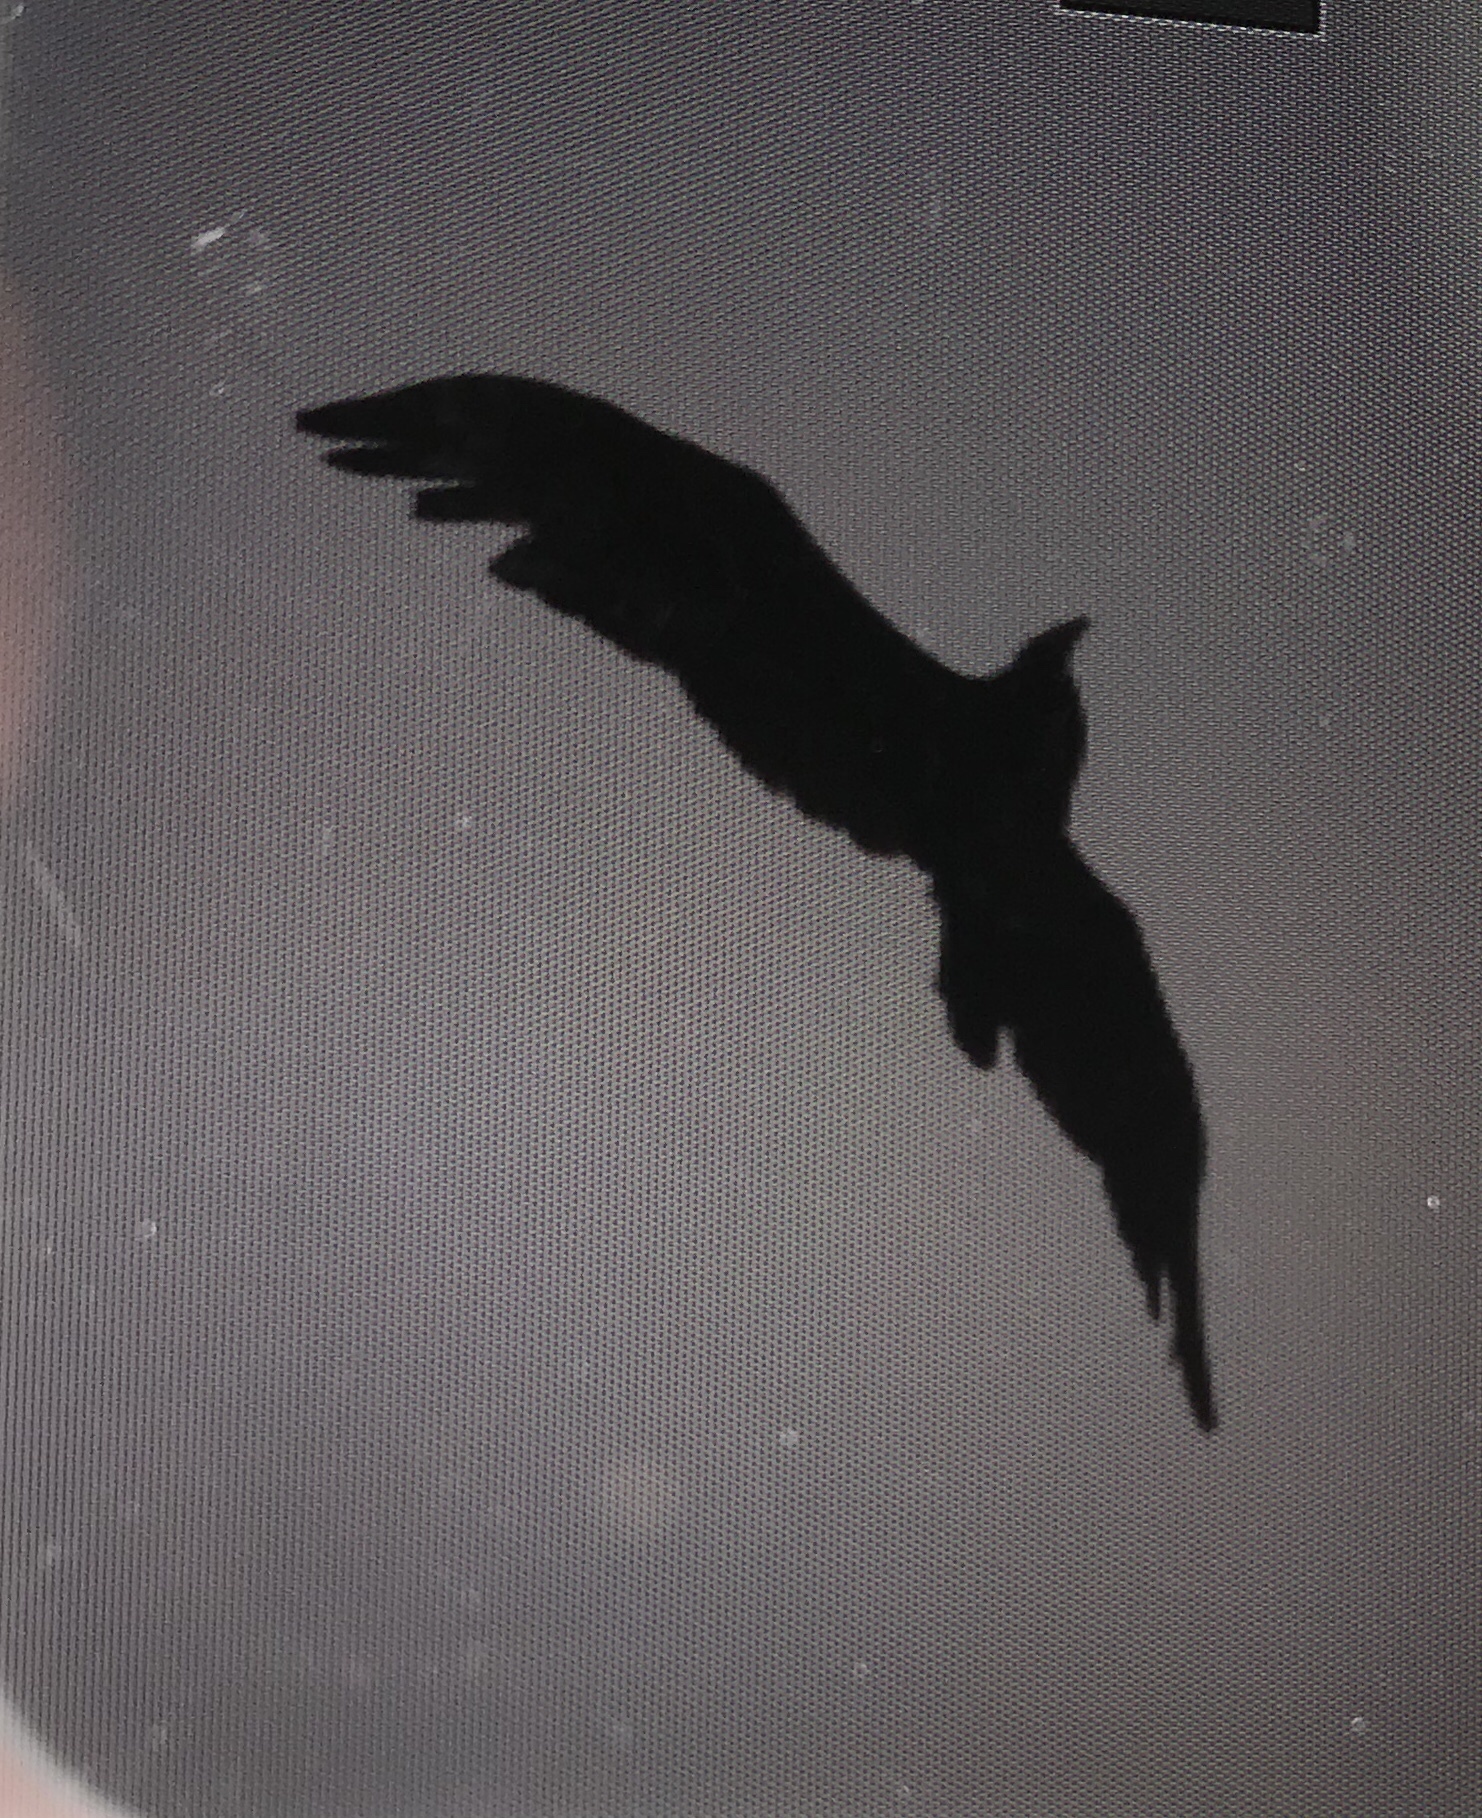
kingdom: Animalia
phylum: Chordata
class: Aves
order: Accipitriformes
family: Cathartidae
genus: Cathartes
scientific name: Cathartes aura
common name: Turkey vulture
